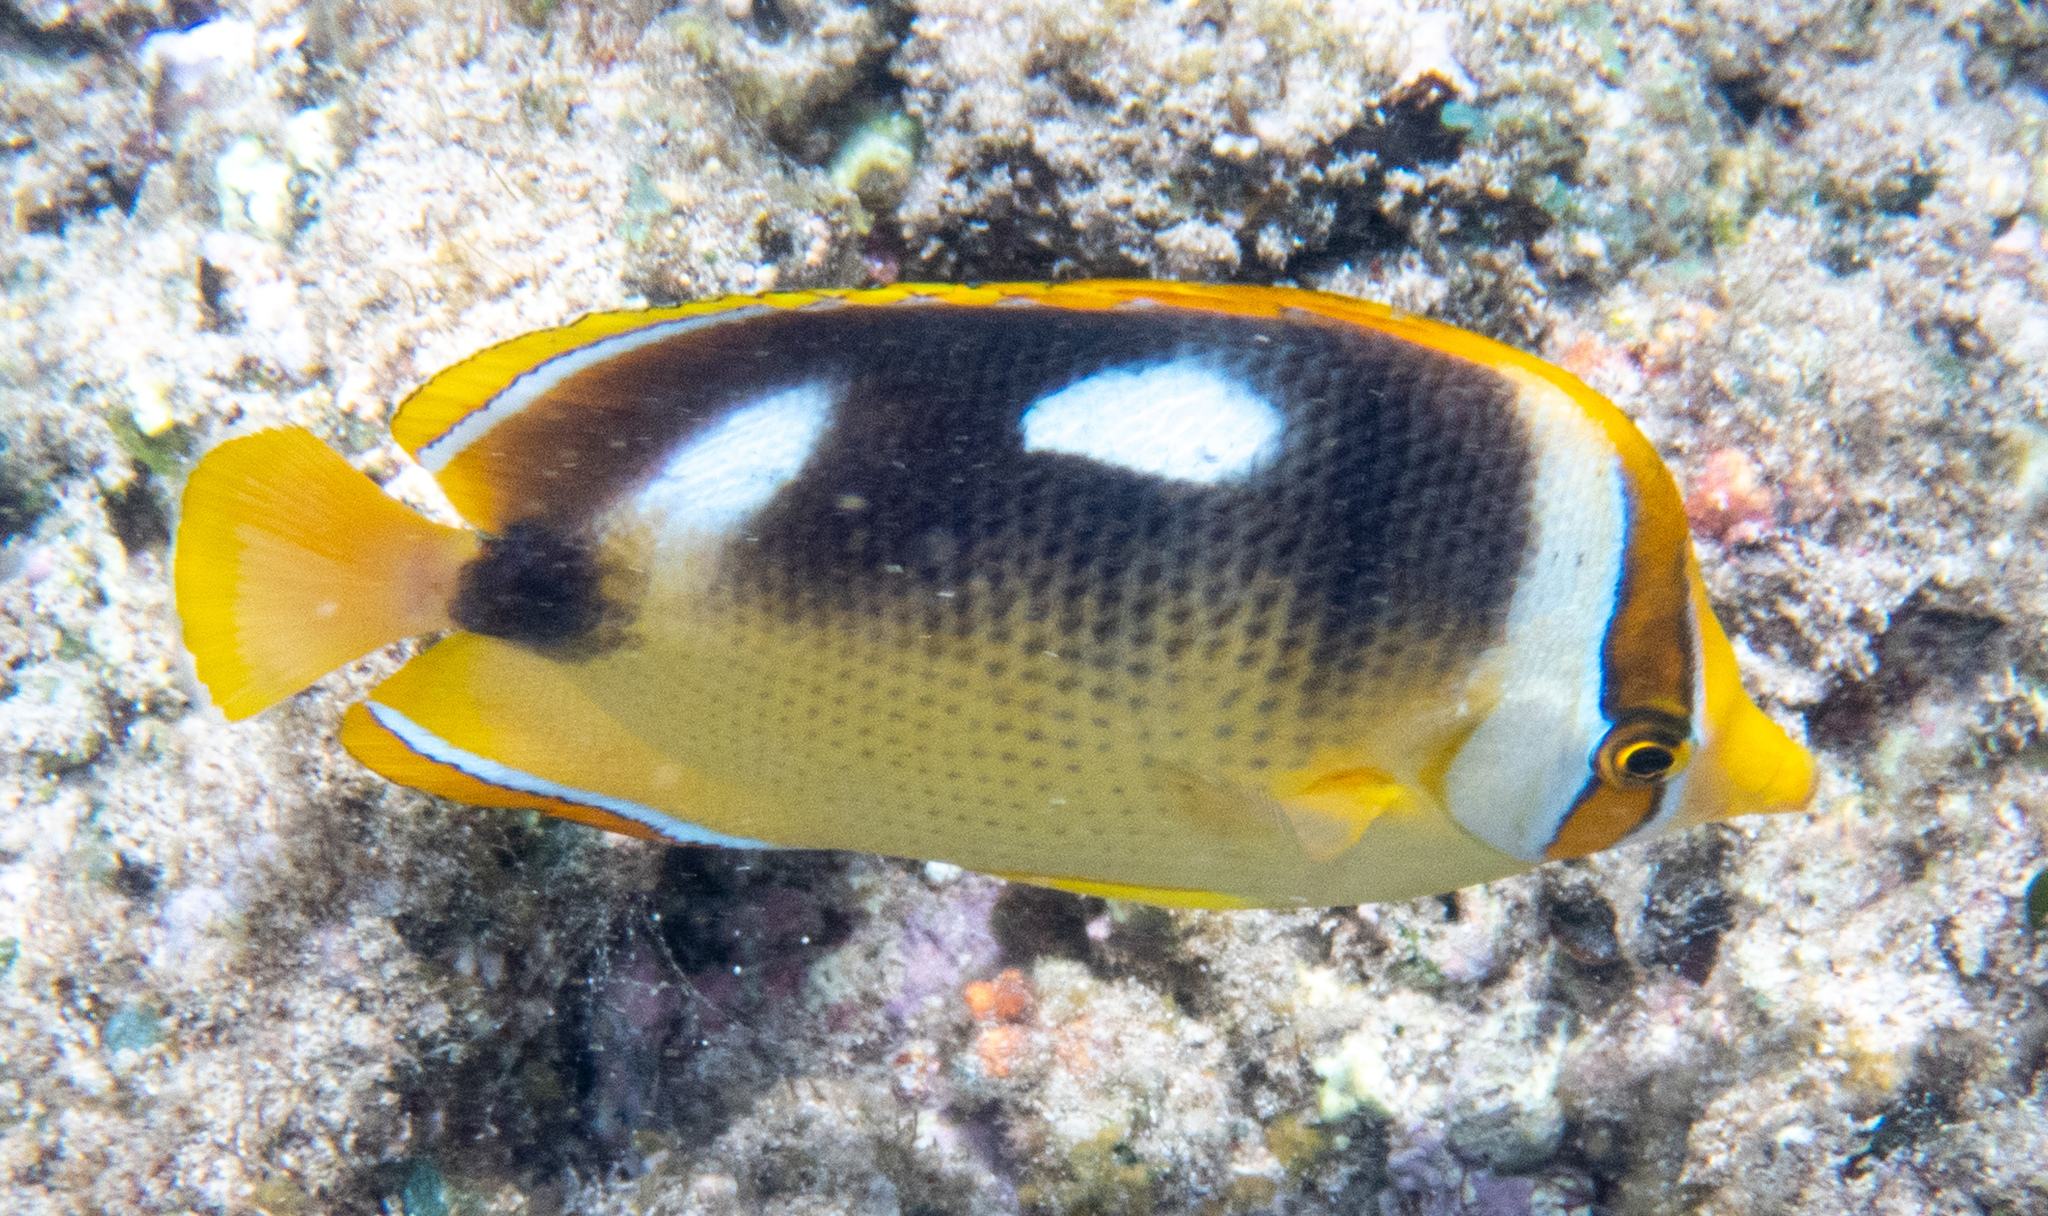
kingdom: Animalia
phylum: Chordata
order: Perciformes
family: Chaetodontidae
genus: Chaetodon
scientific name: Chaetodon quadrimaculatus
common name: Fourspot butterflyfish
